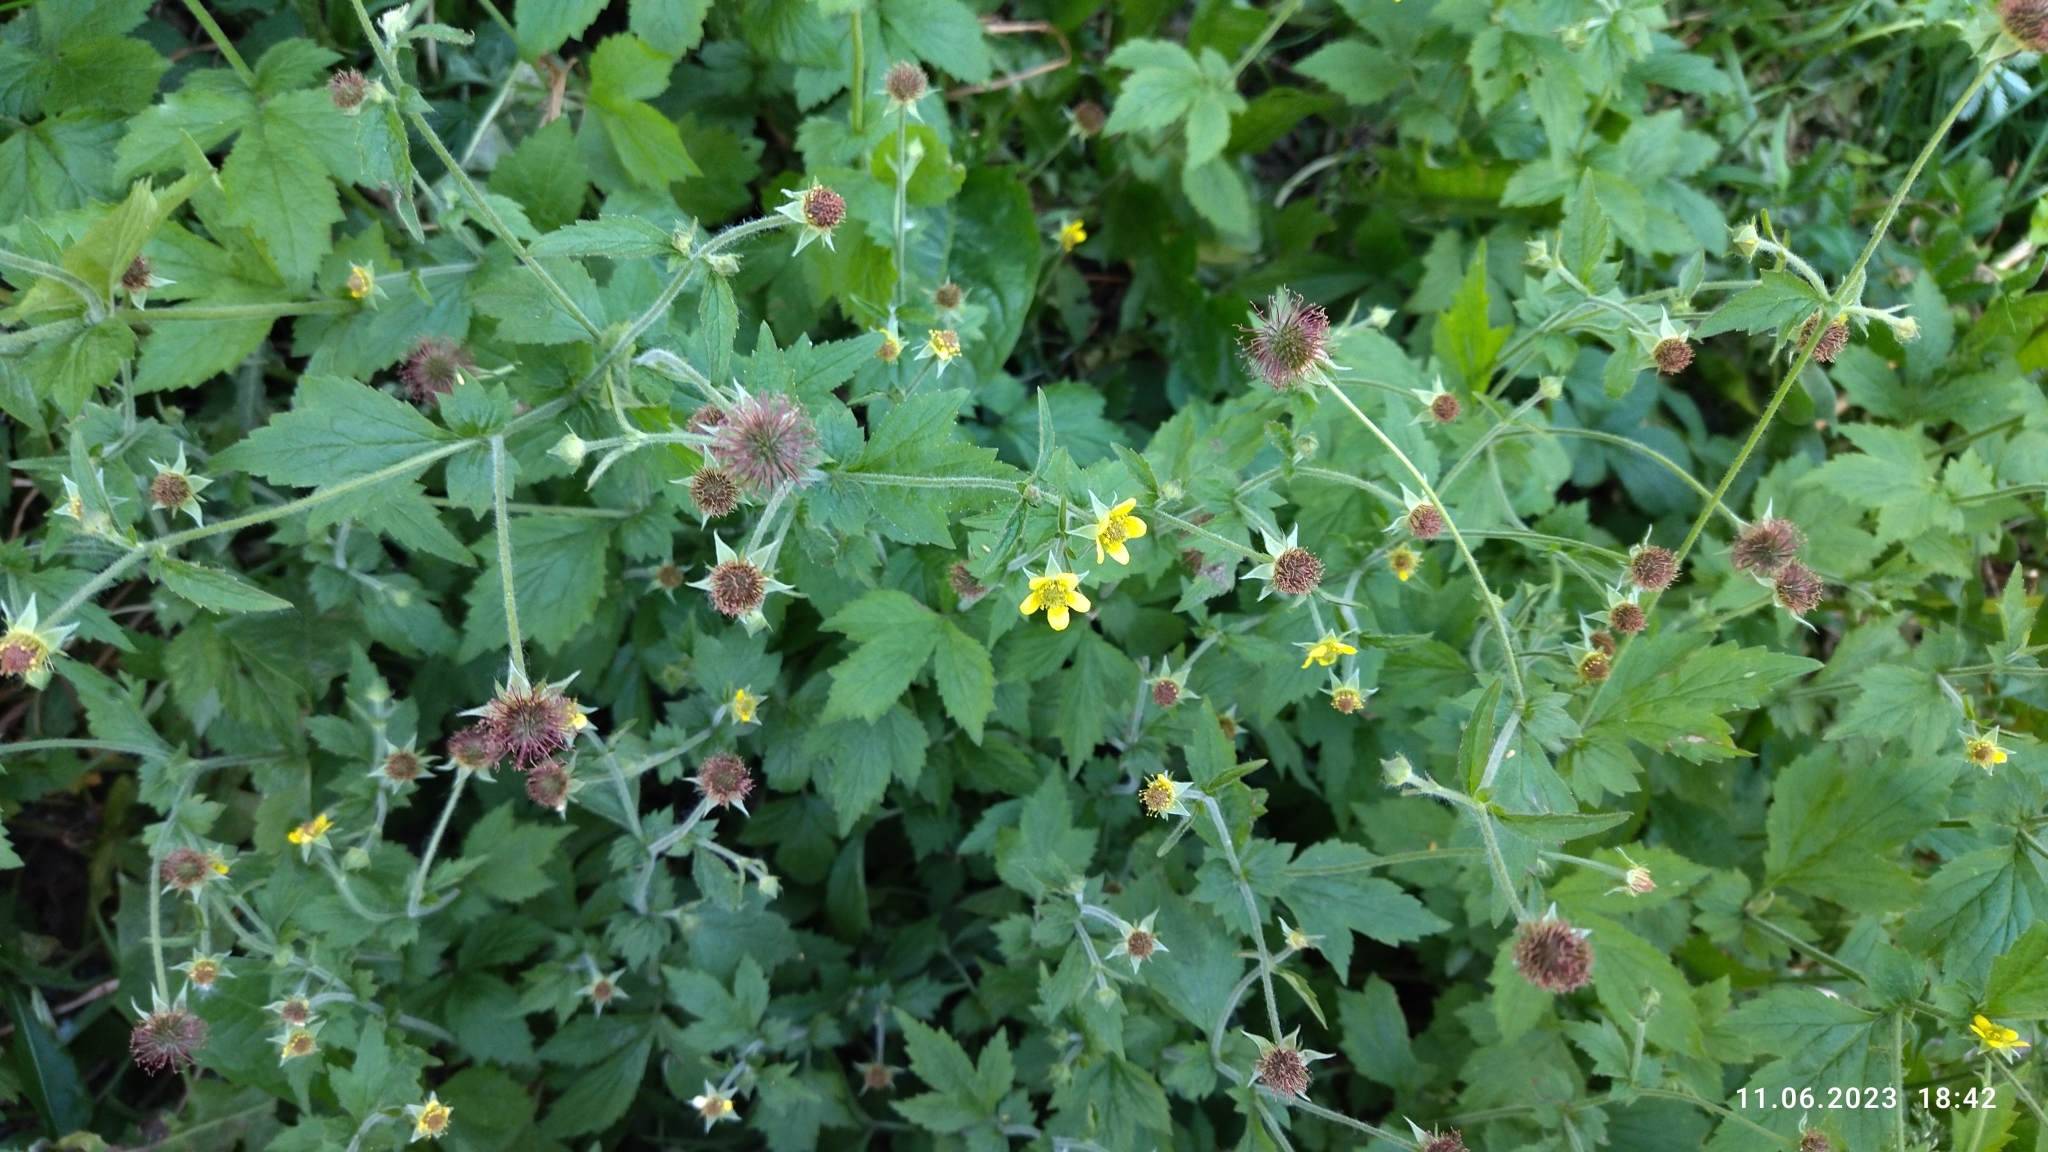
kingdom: Plantae
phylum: Tracheophyta
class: Magnoliopsida
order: Rosales
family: Rosaceae
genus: Geum
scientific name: Geum urbanum
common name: Wood avens
